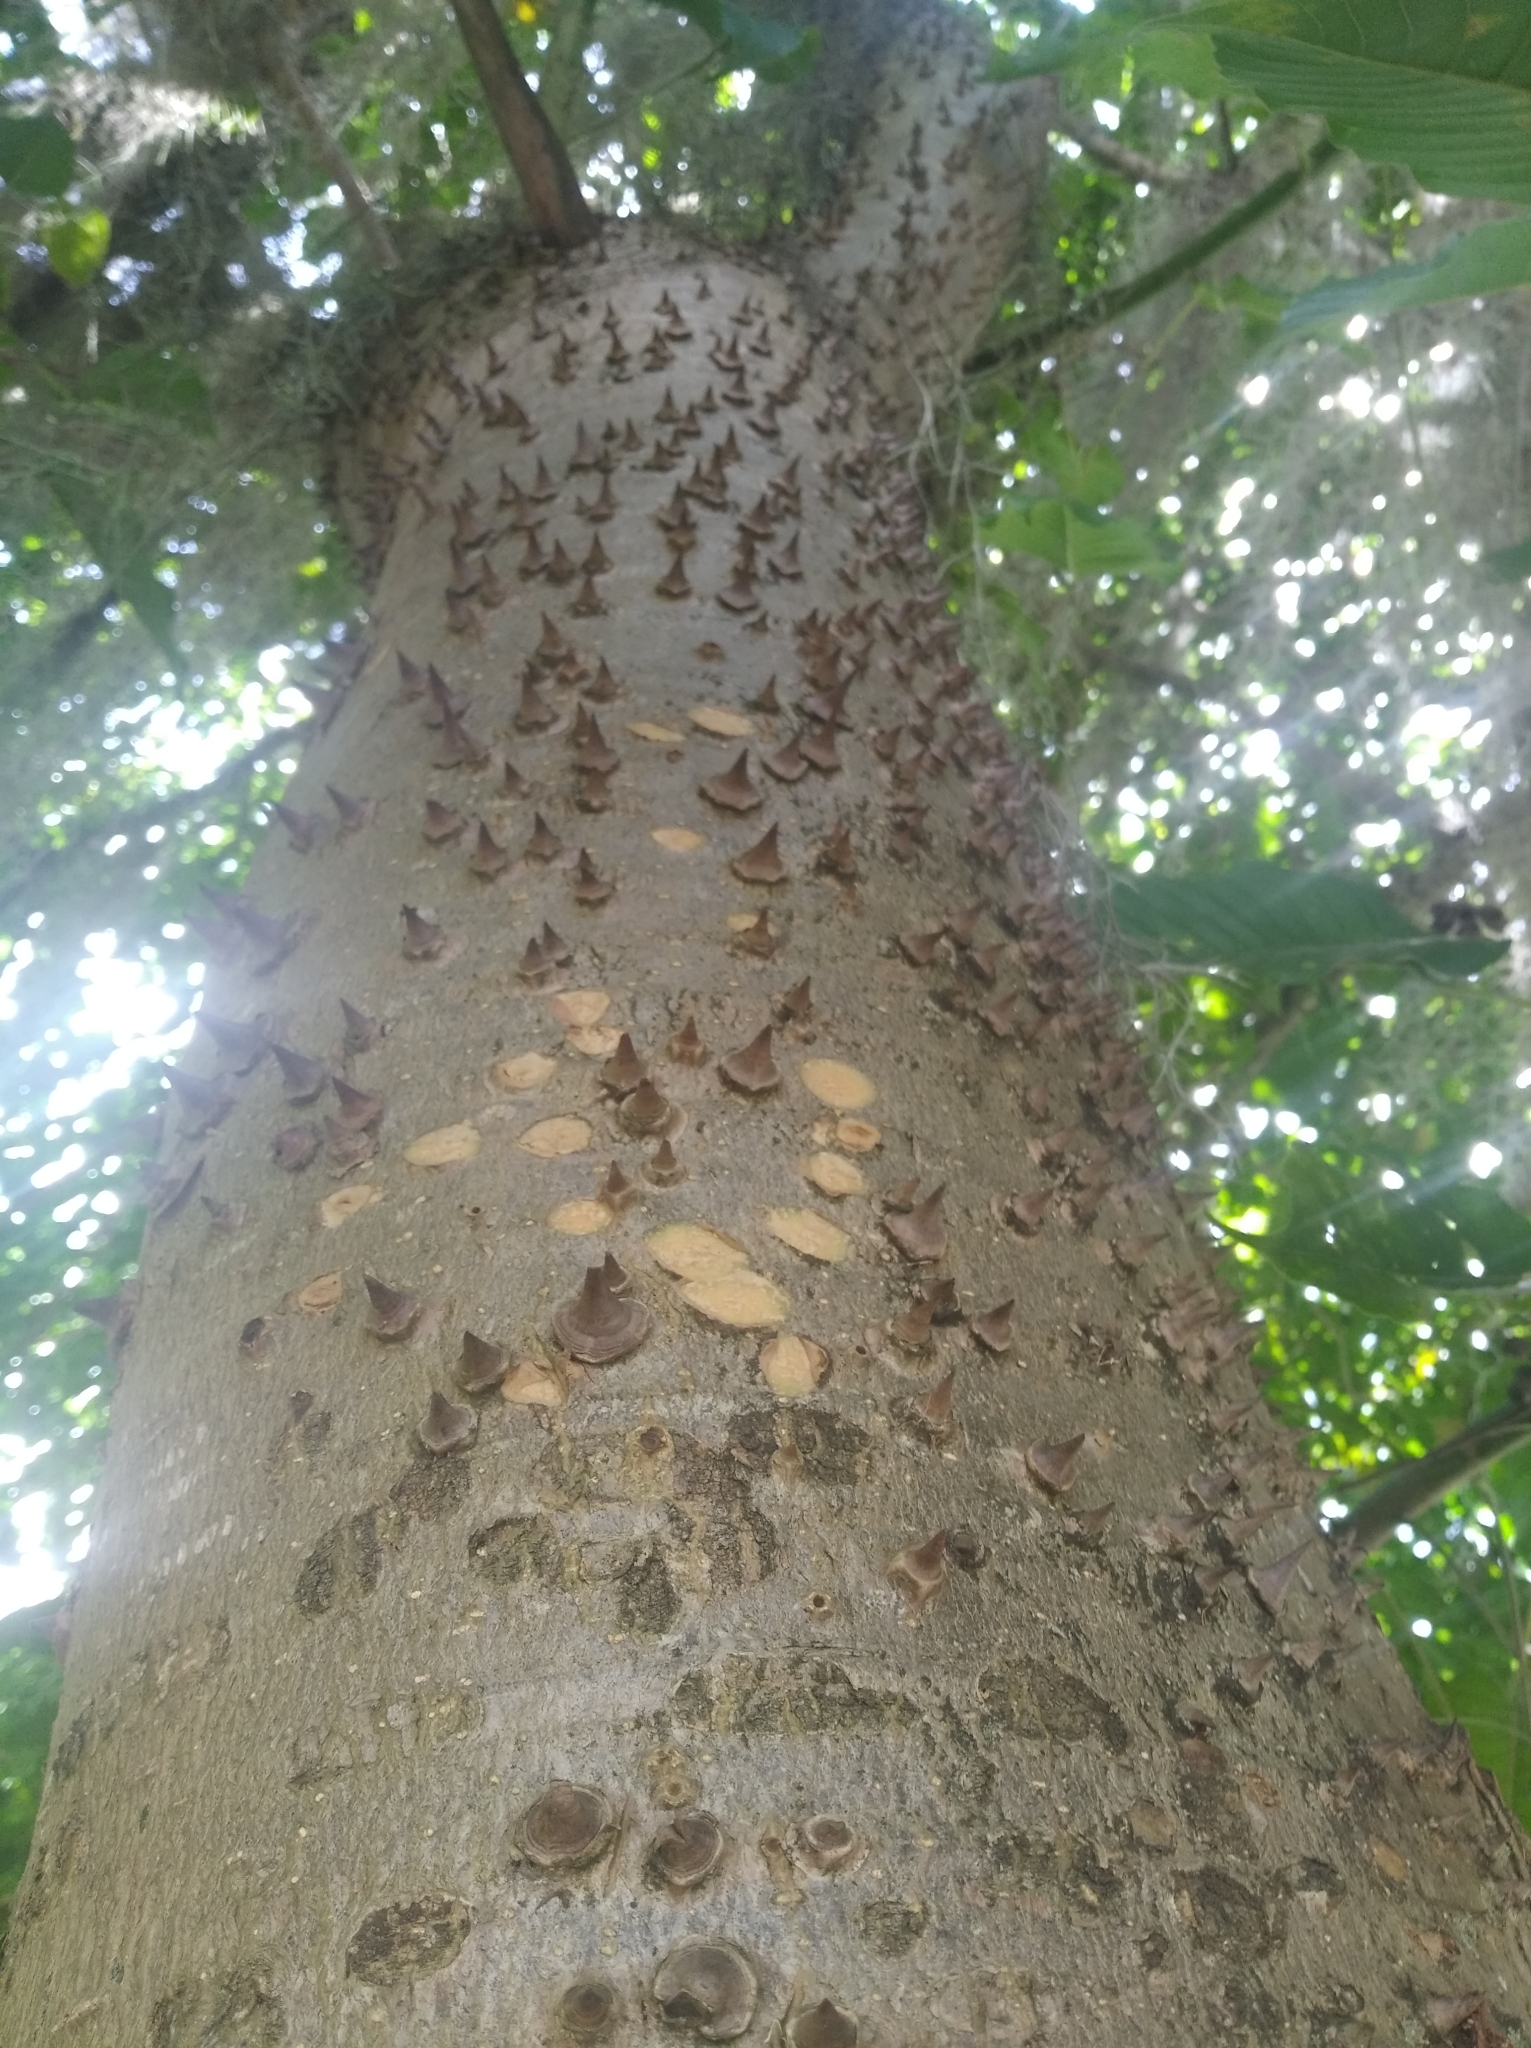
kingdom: Plantae
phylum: Tracheophyta
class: Magnoliopsida
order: Malpighiales
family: Euphorbiaceae
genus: Hura
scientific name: Hura crepitans
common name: Sandboxtree
